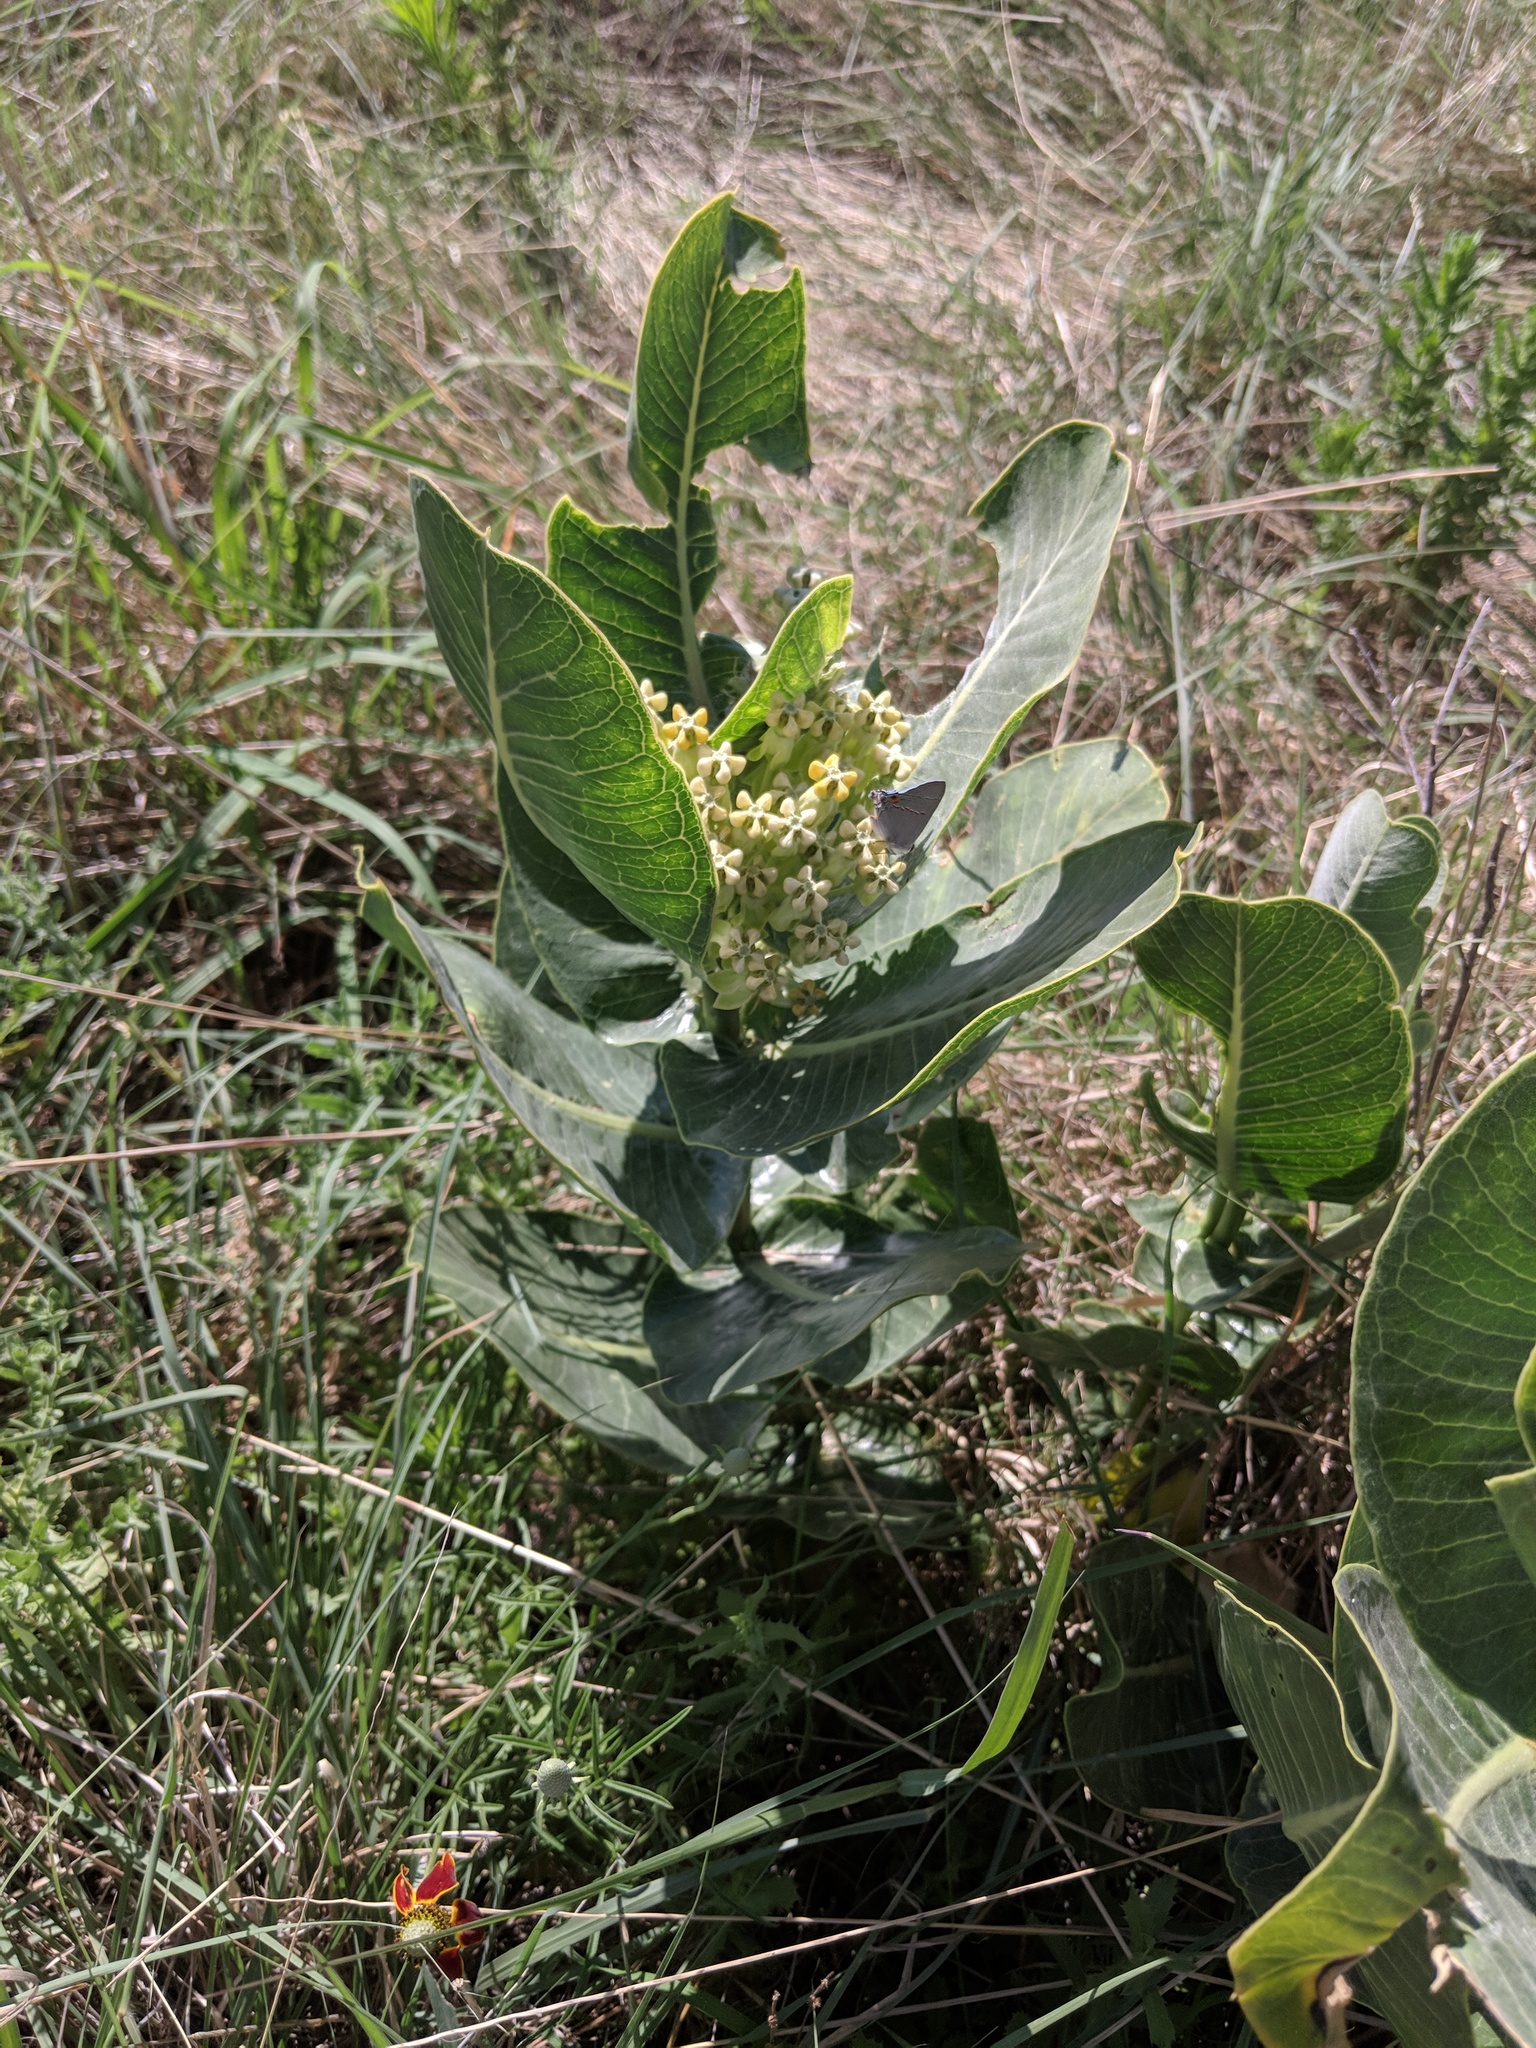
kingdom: Plantae
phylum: Tracheophyta
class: Magnoliopsida
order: Gentianales
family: Apocynaceae
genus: Asclepias
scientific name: Asclepias latifolia
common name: Broadleaf milkweed
